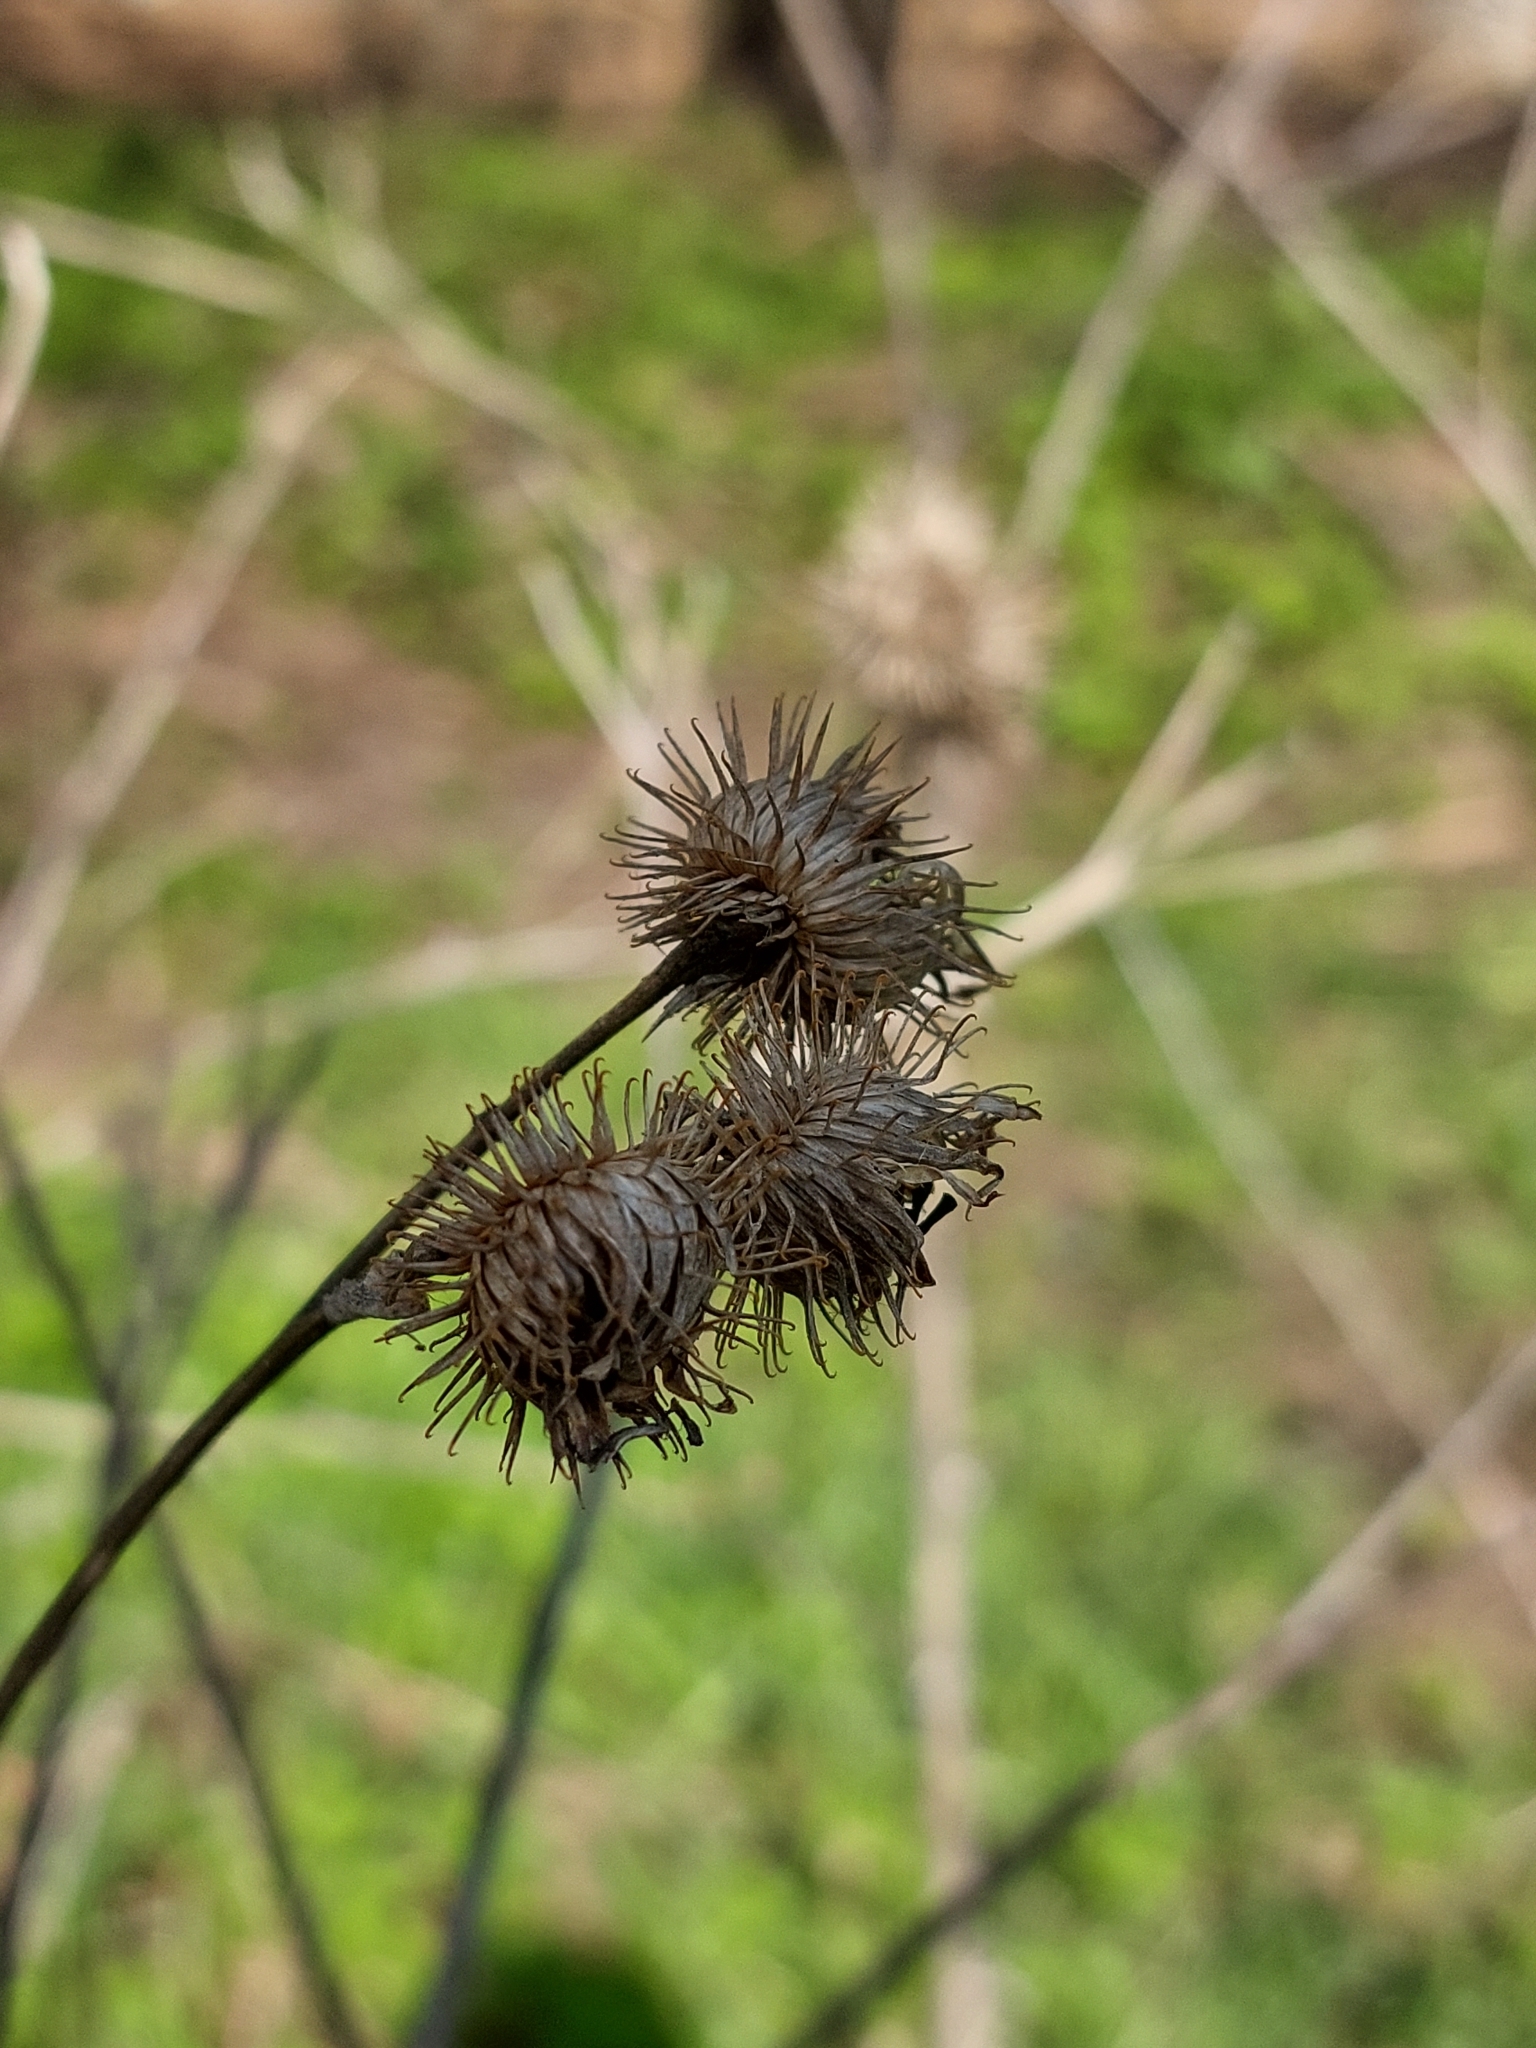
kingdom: Plantae
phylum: Tracheophyta
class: Magnoliopsida
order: Asterales
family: Asteraceae
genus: Arctium
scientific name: Arctium tomentosum
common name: Woolly burdock
